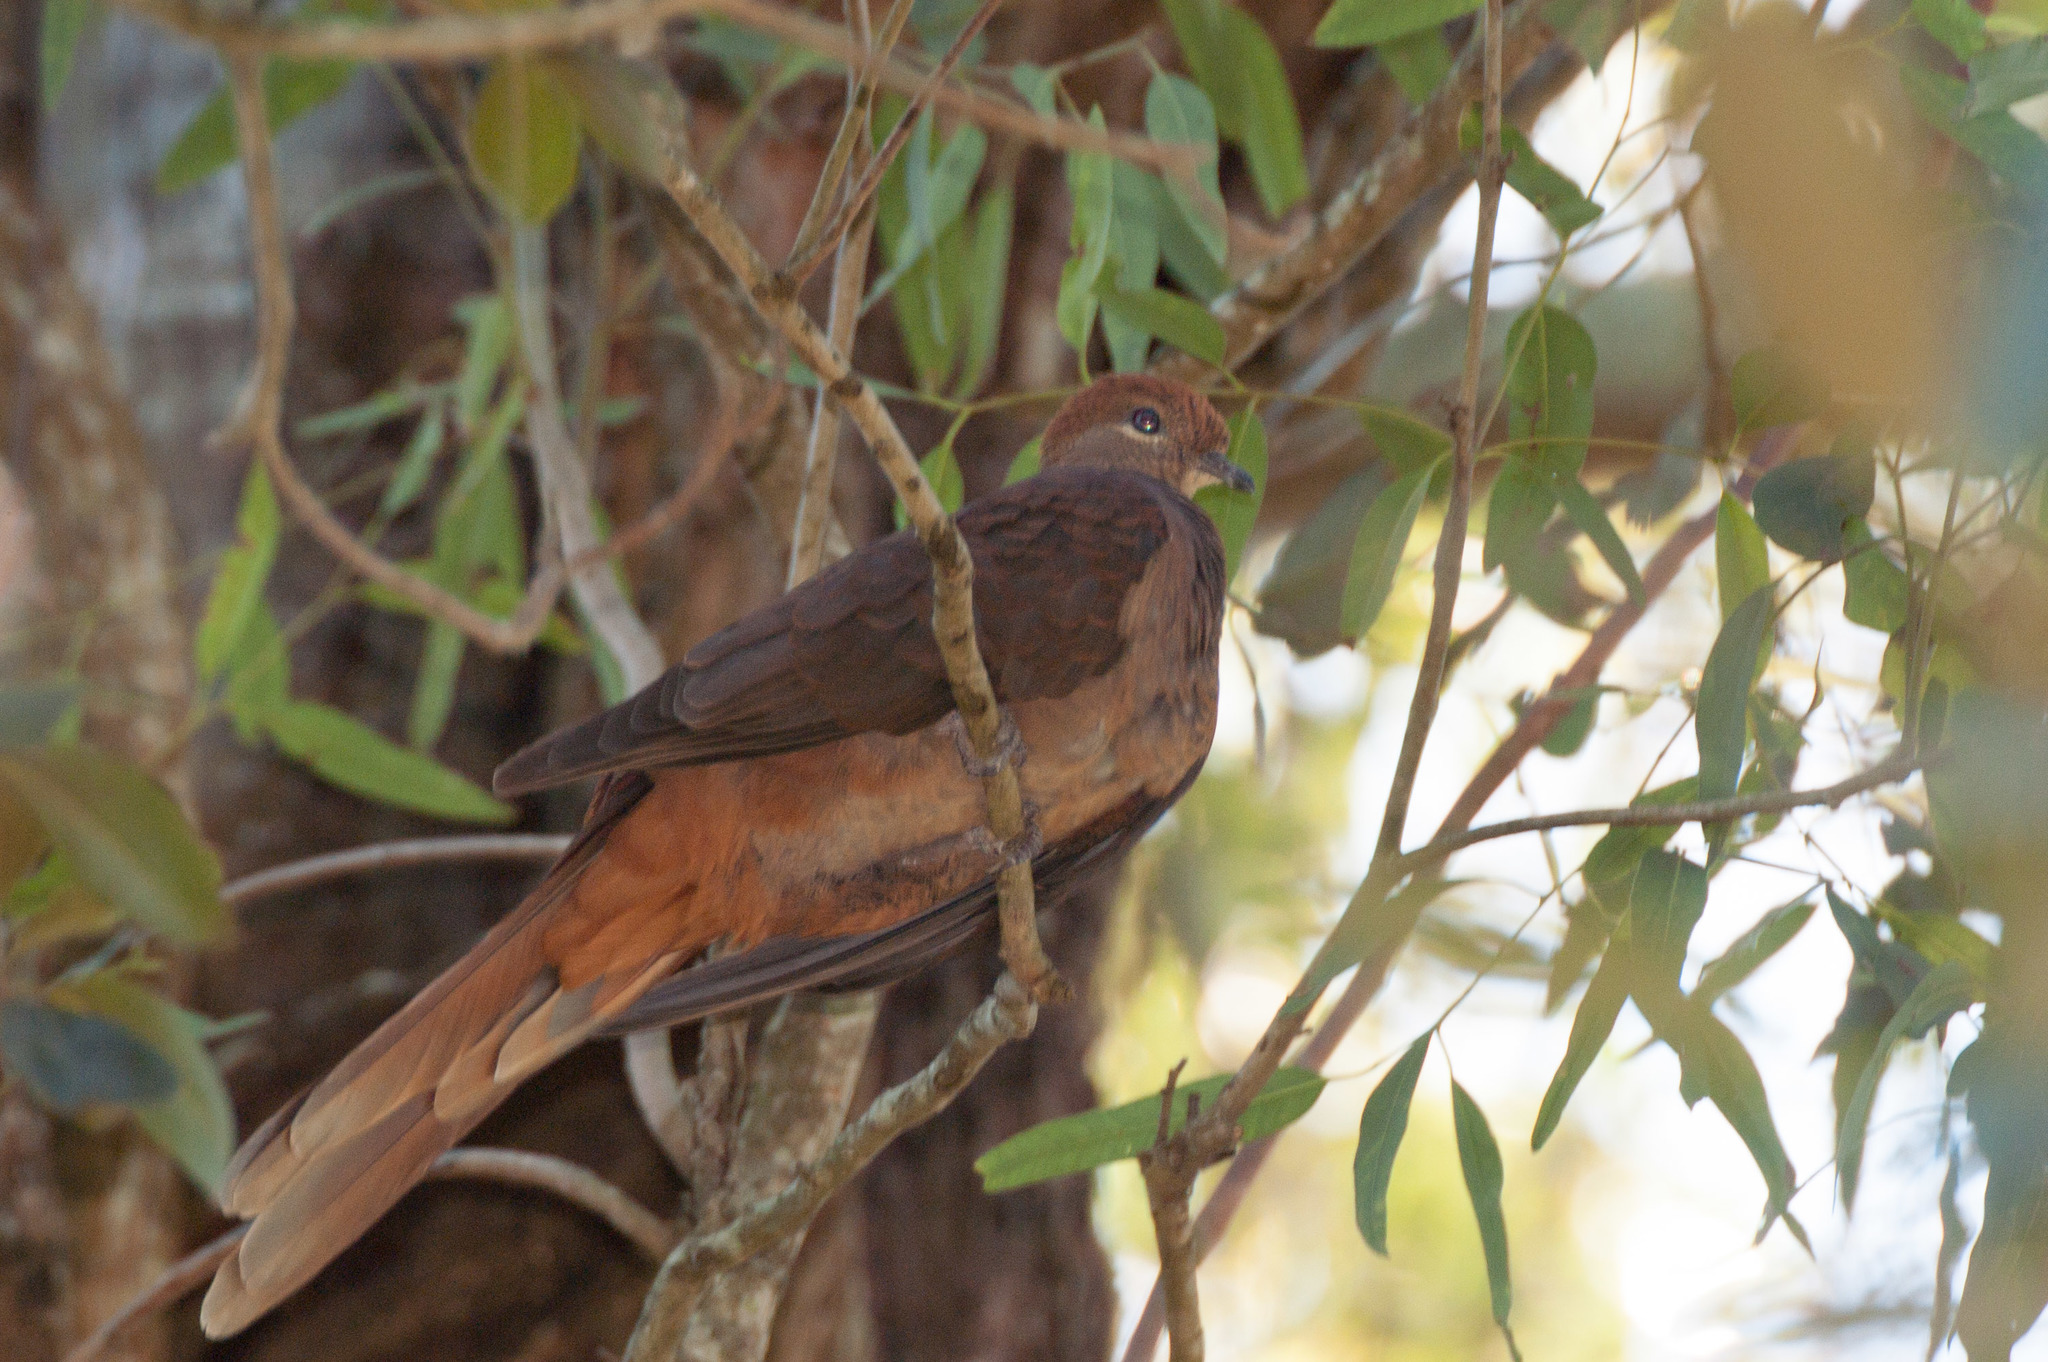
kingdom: Animalia
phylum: Chordata
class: Aves
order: Columbiformes
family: Columbidae
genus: Macropygia
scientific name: Macropygia phasianella
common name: Brown cuckoo-dove
